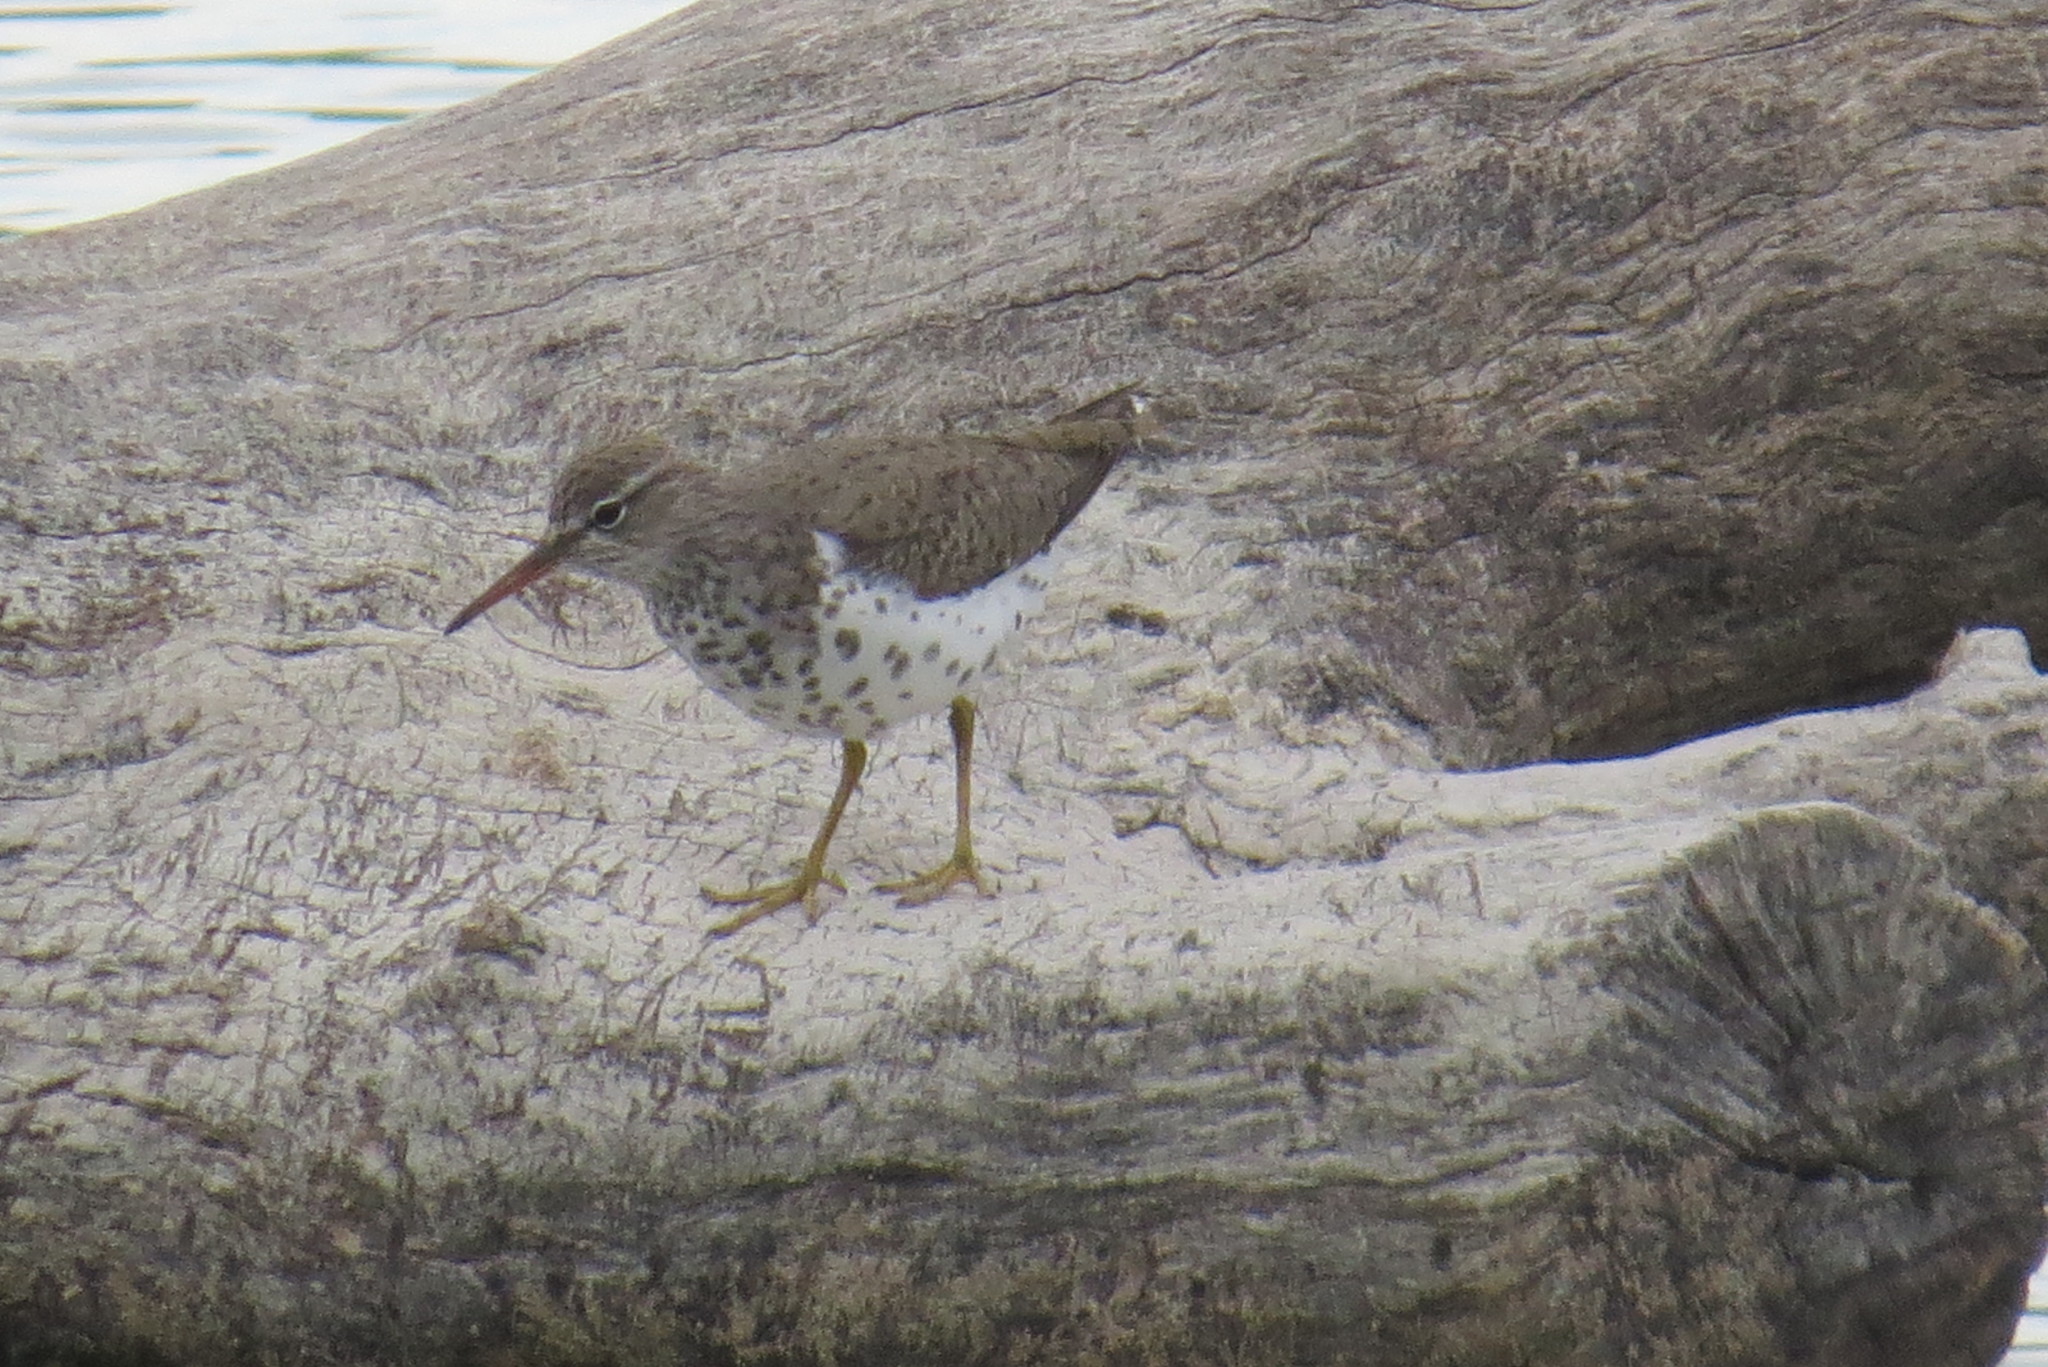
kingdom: Animalia
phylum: Chordata
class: Aves
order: Charadriiformes
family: Scolopacidae
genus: Actitis
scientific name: Actitis macularius
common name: Spotted sandpiper
